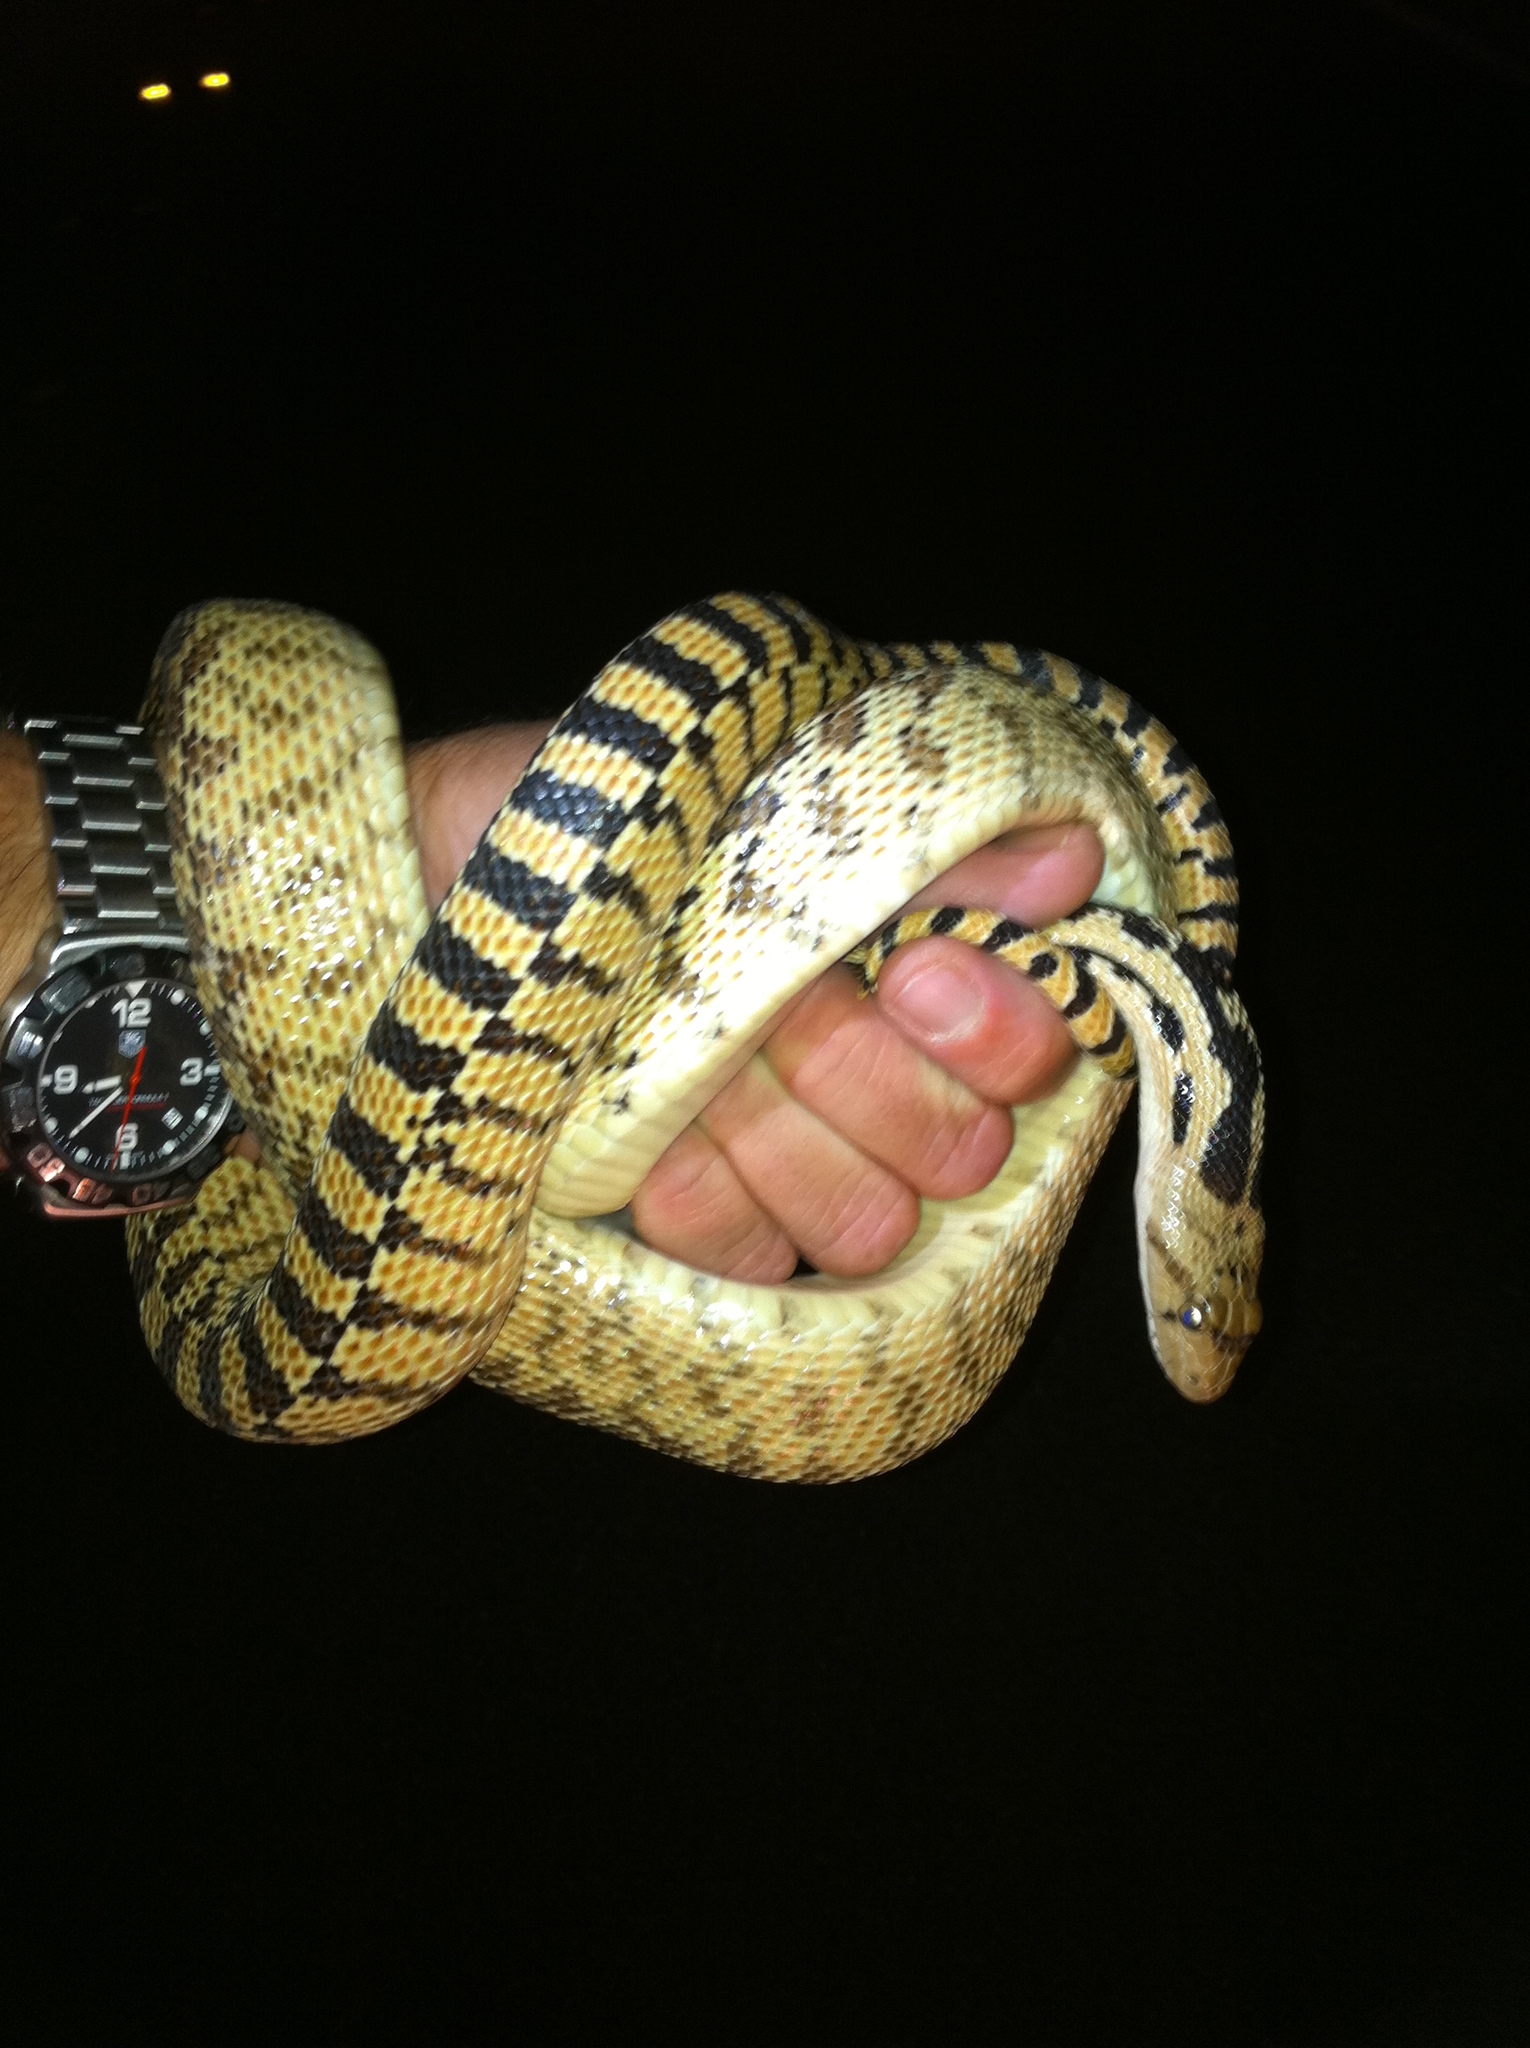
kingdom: Animalia
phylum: Chordata
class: Squamata
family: Colubridae
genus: Pituophis
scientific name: Pituophis catenifer
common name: Gopher snake
